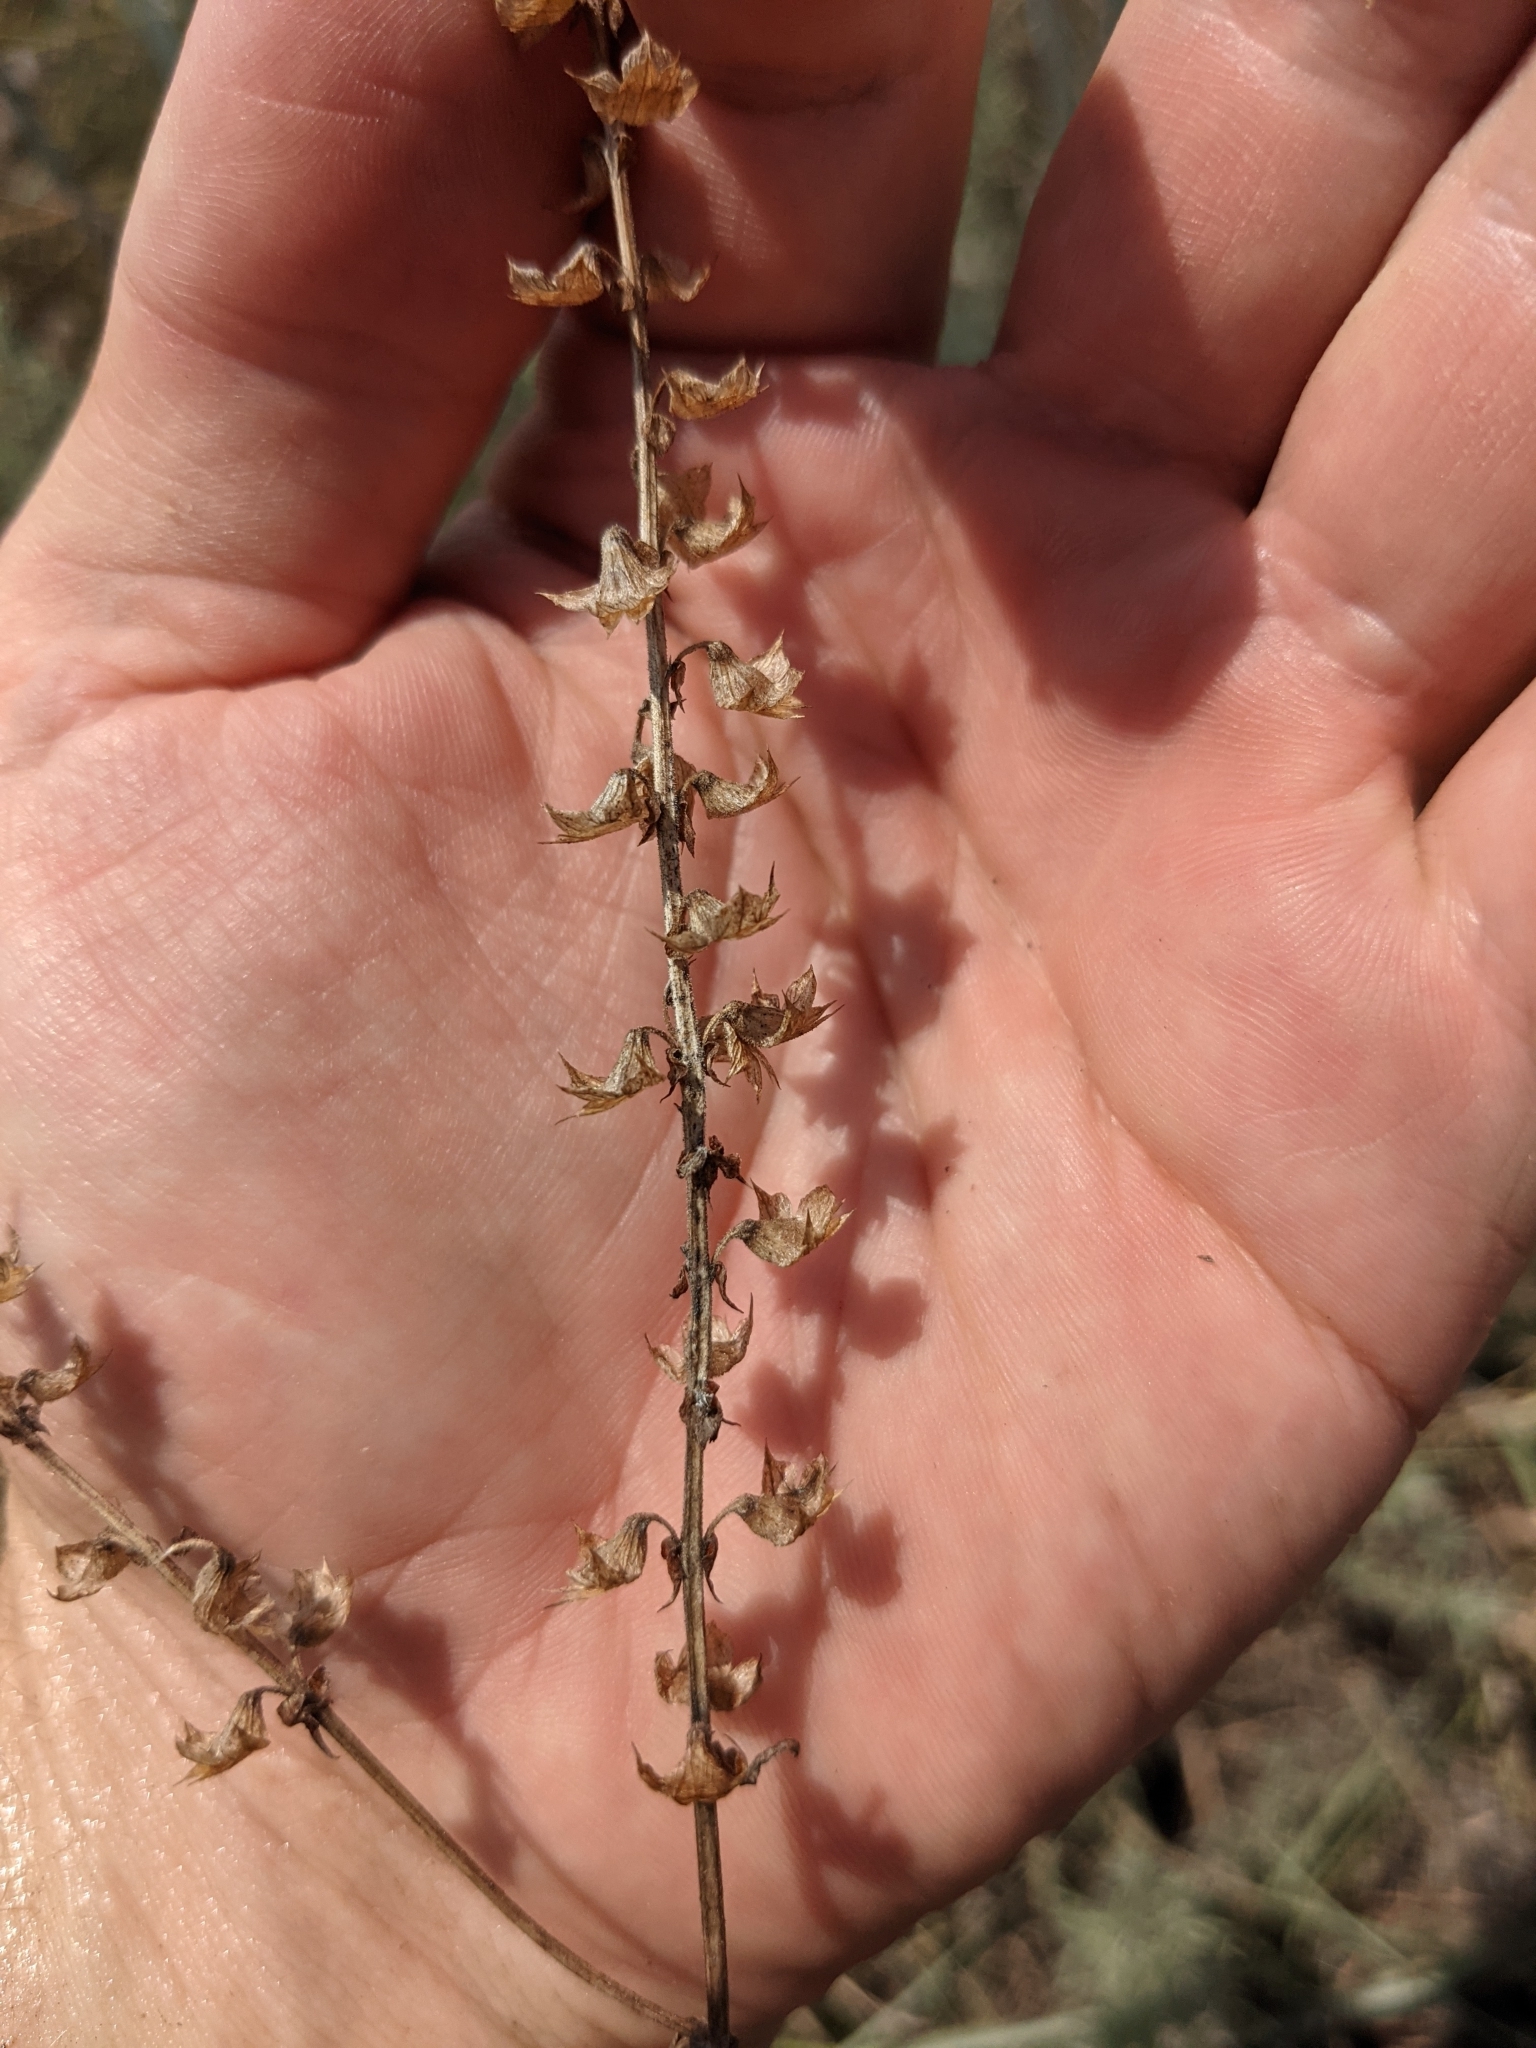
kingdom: Plantae
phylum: Tracheophyta
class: Magnoliopsida
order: Lamiales
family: Lamiaceae
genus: Warnockia
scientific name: Warnockia scutellarioides
